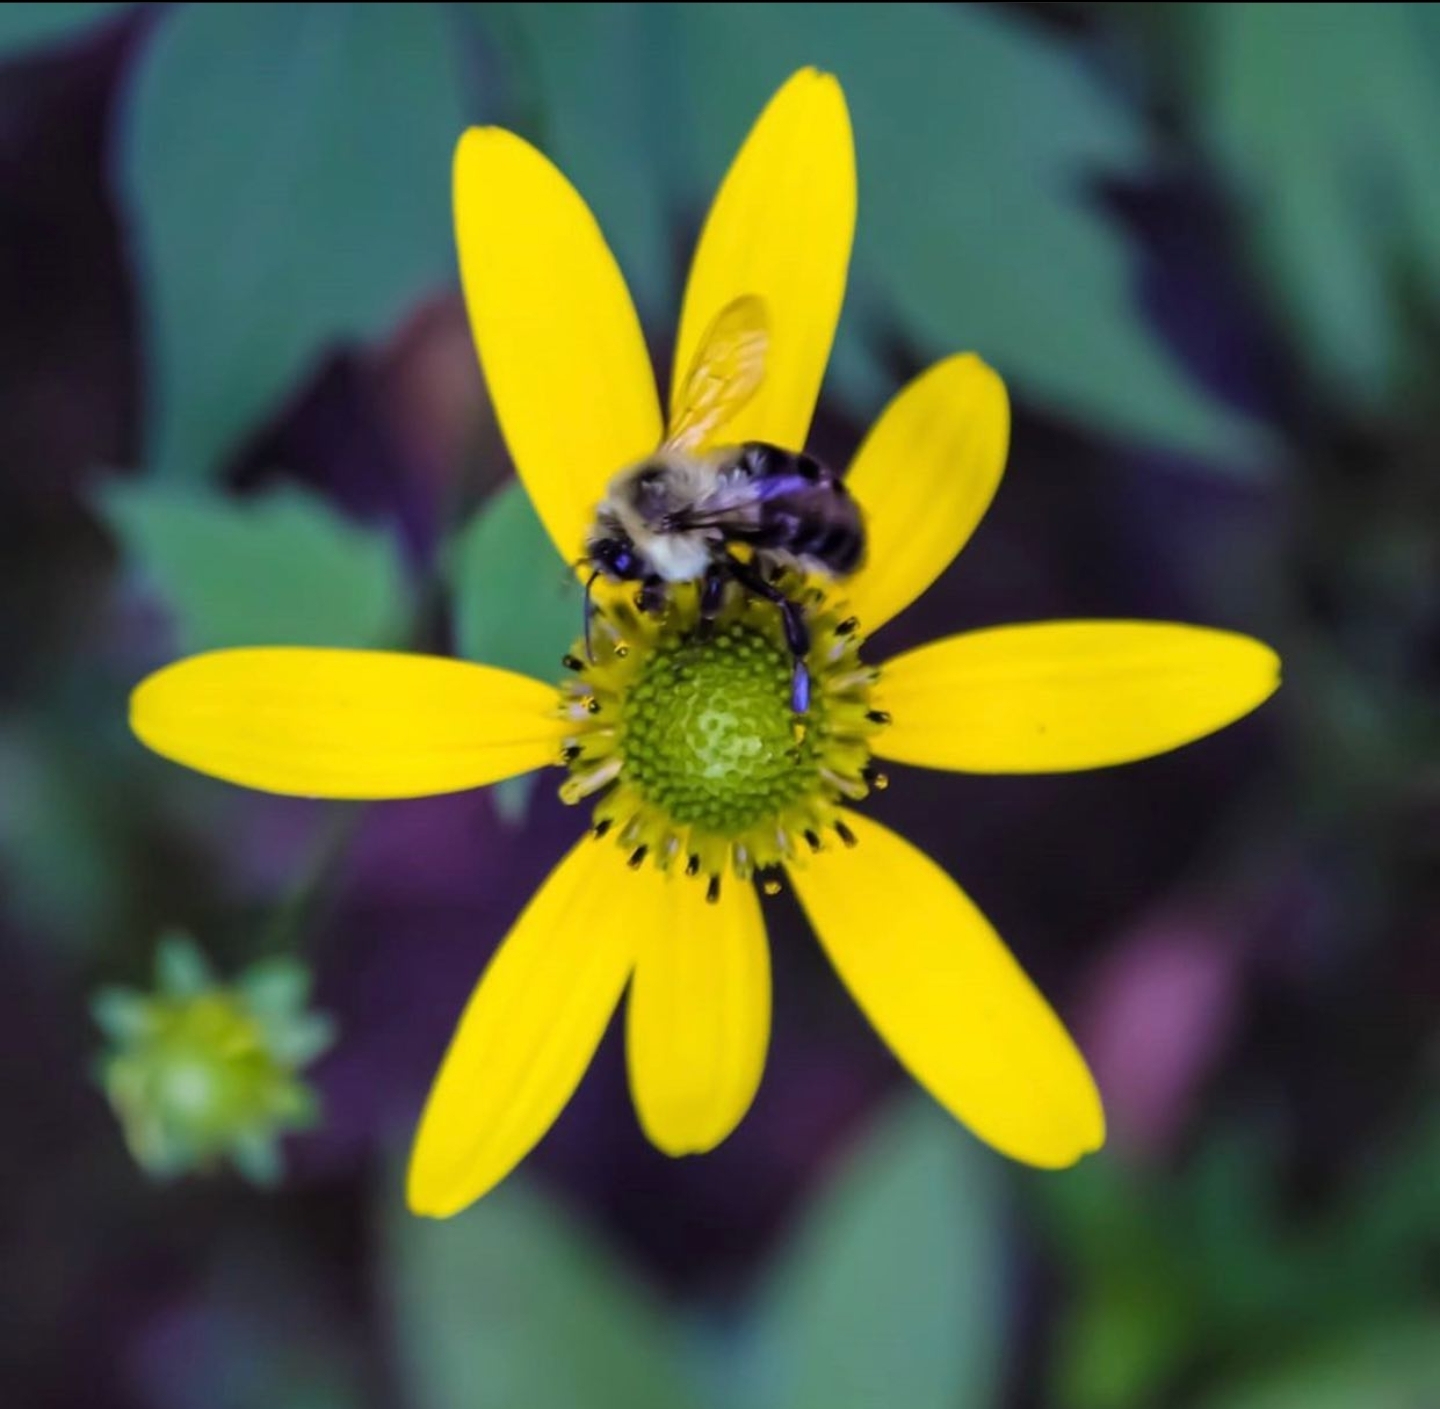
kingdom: Animalia
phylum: Arthropoda
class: Insecta
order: Hymenoptera
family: Apidae
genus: Bombus
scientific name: Bombus impatiens
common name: Common eastern bumble bee
